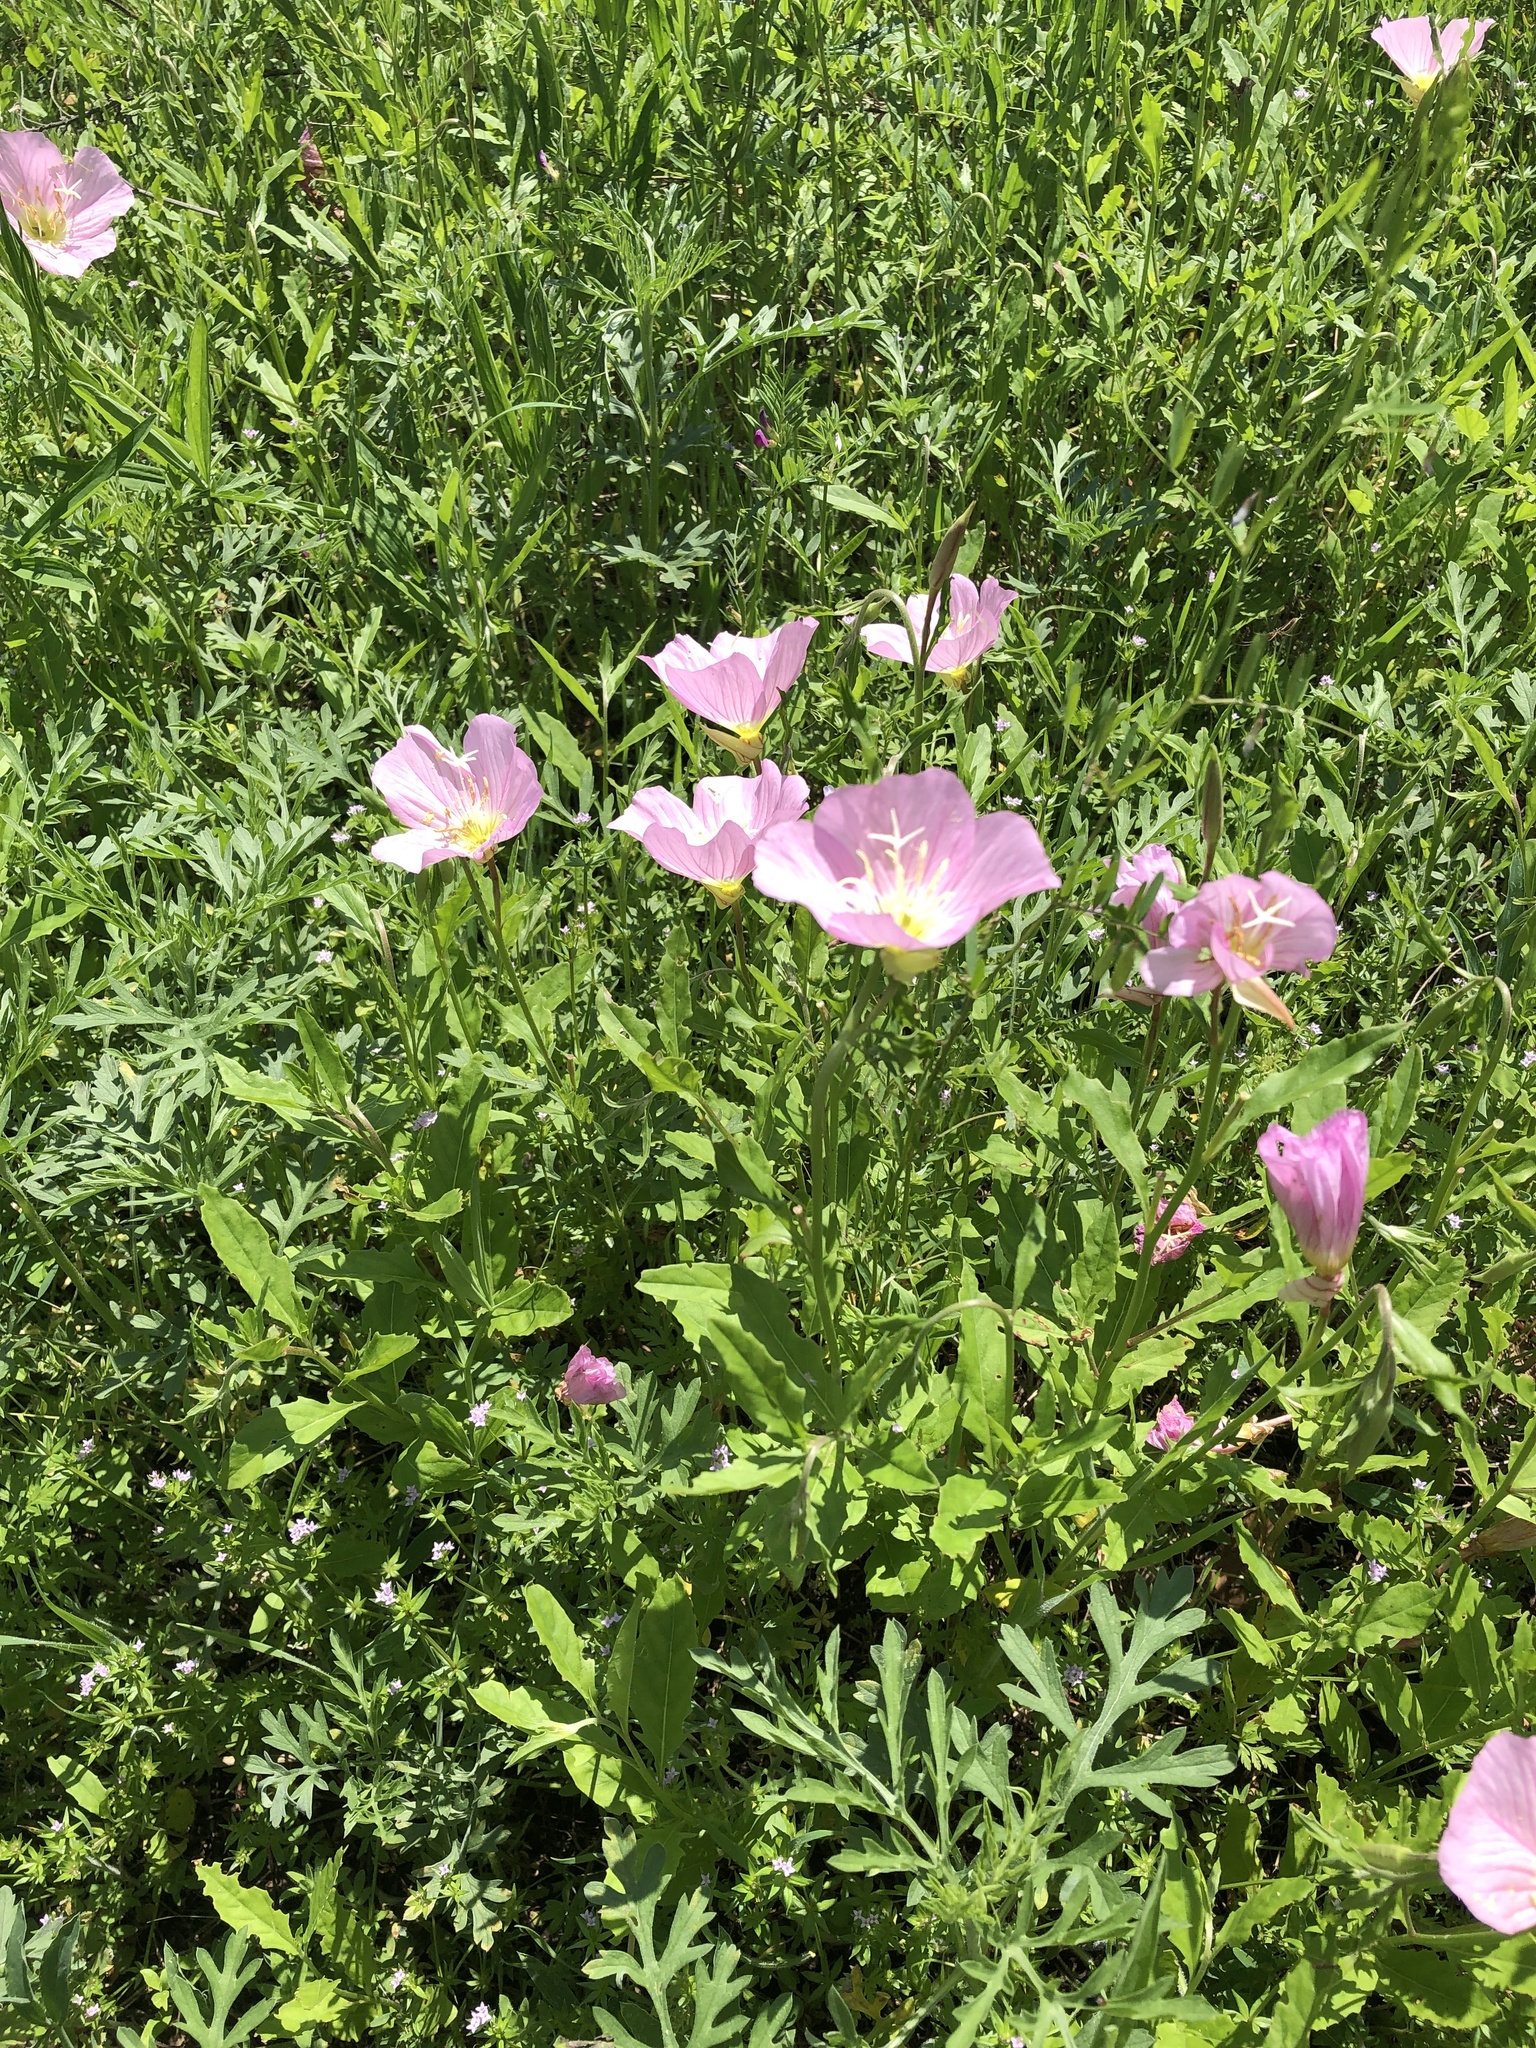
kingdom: Plantae
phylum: Tracheophyta
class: Magnoliopsida
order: Myrtales
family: Onagraceae
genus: Oenothera
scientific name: Oenothera speciosa
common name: White evening-primrose
